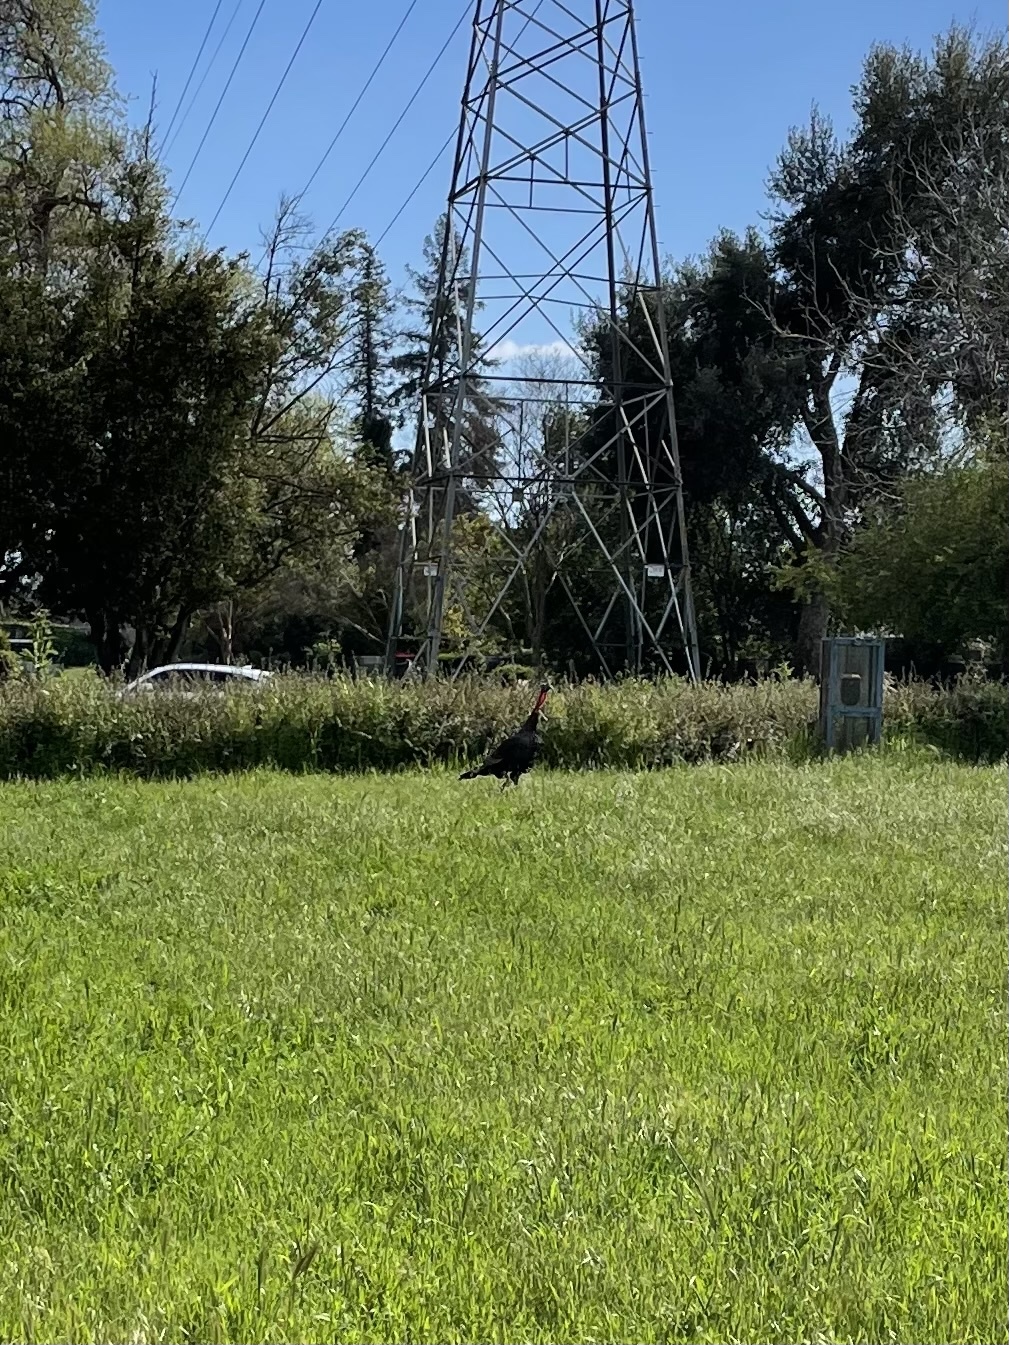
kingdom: Animalia
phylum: Chordata
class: Aves
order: Galliformes
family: Phasianidae
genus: Meleagris
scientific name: Meleagris gallopavo
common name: Wild turkey
